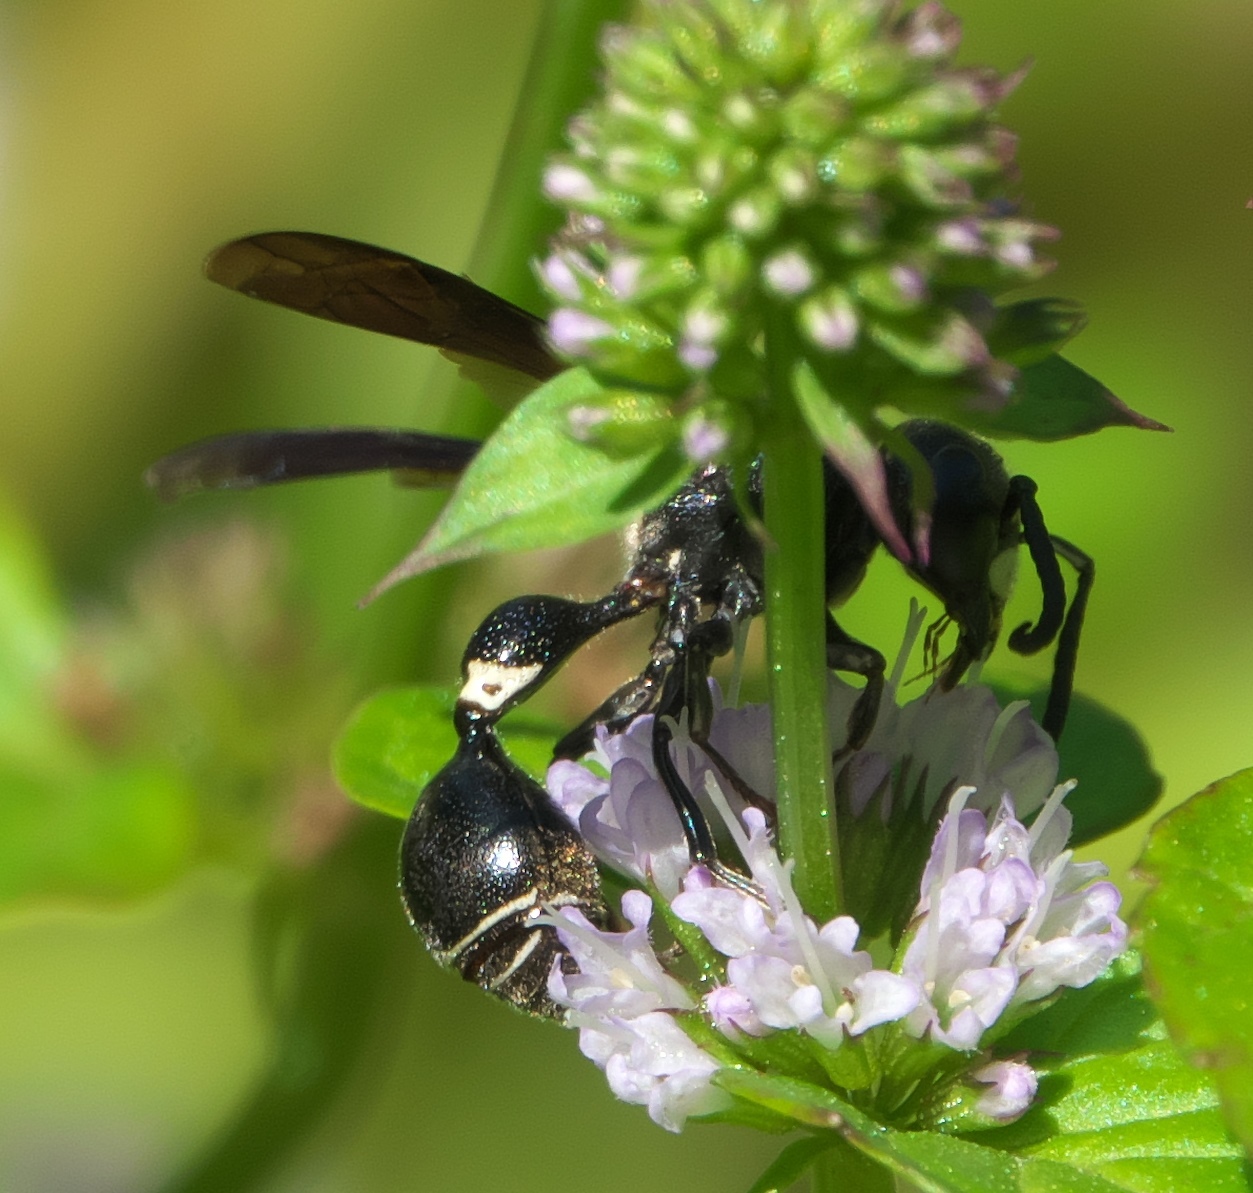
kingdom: Animalia
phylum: Arthropoda
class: Insecta
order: Hymenoptera
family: Eumenidae
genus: Zethus
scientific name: Zethus spinipes
